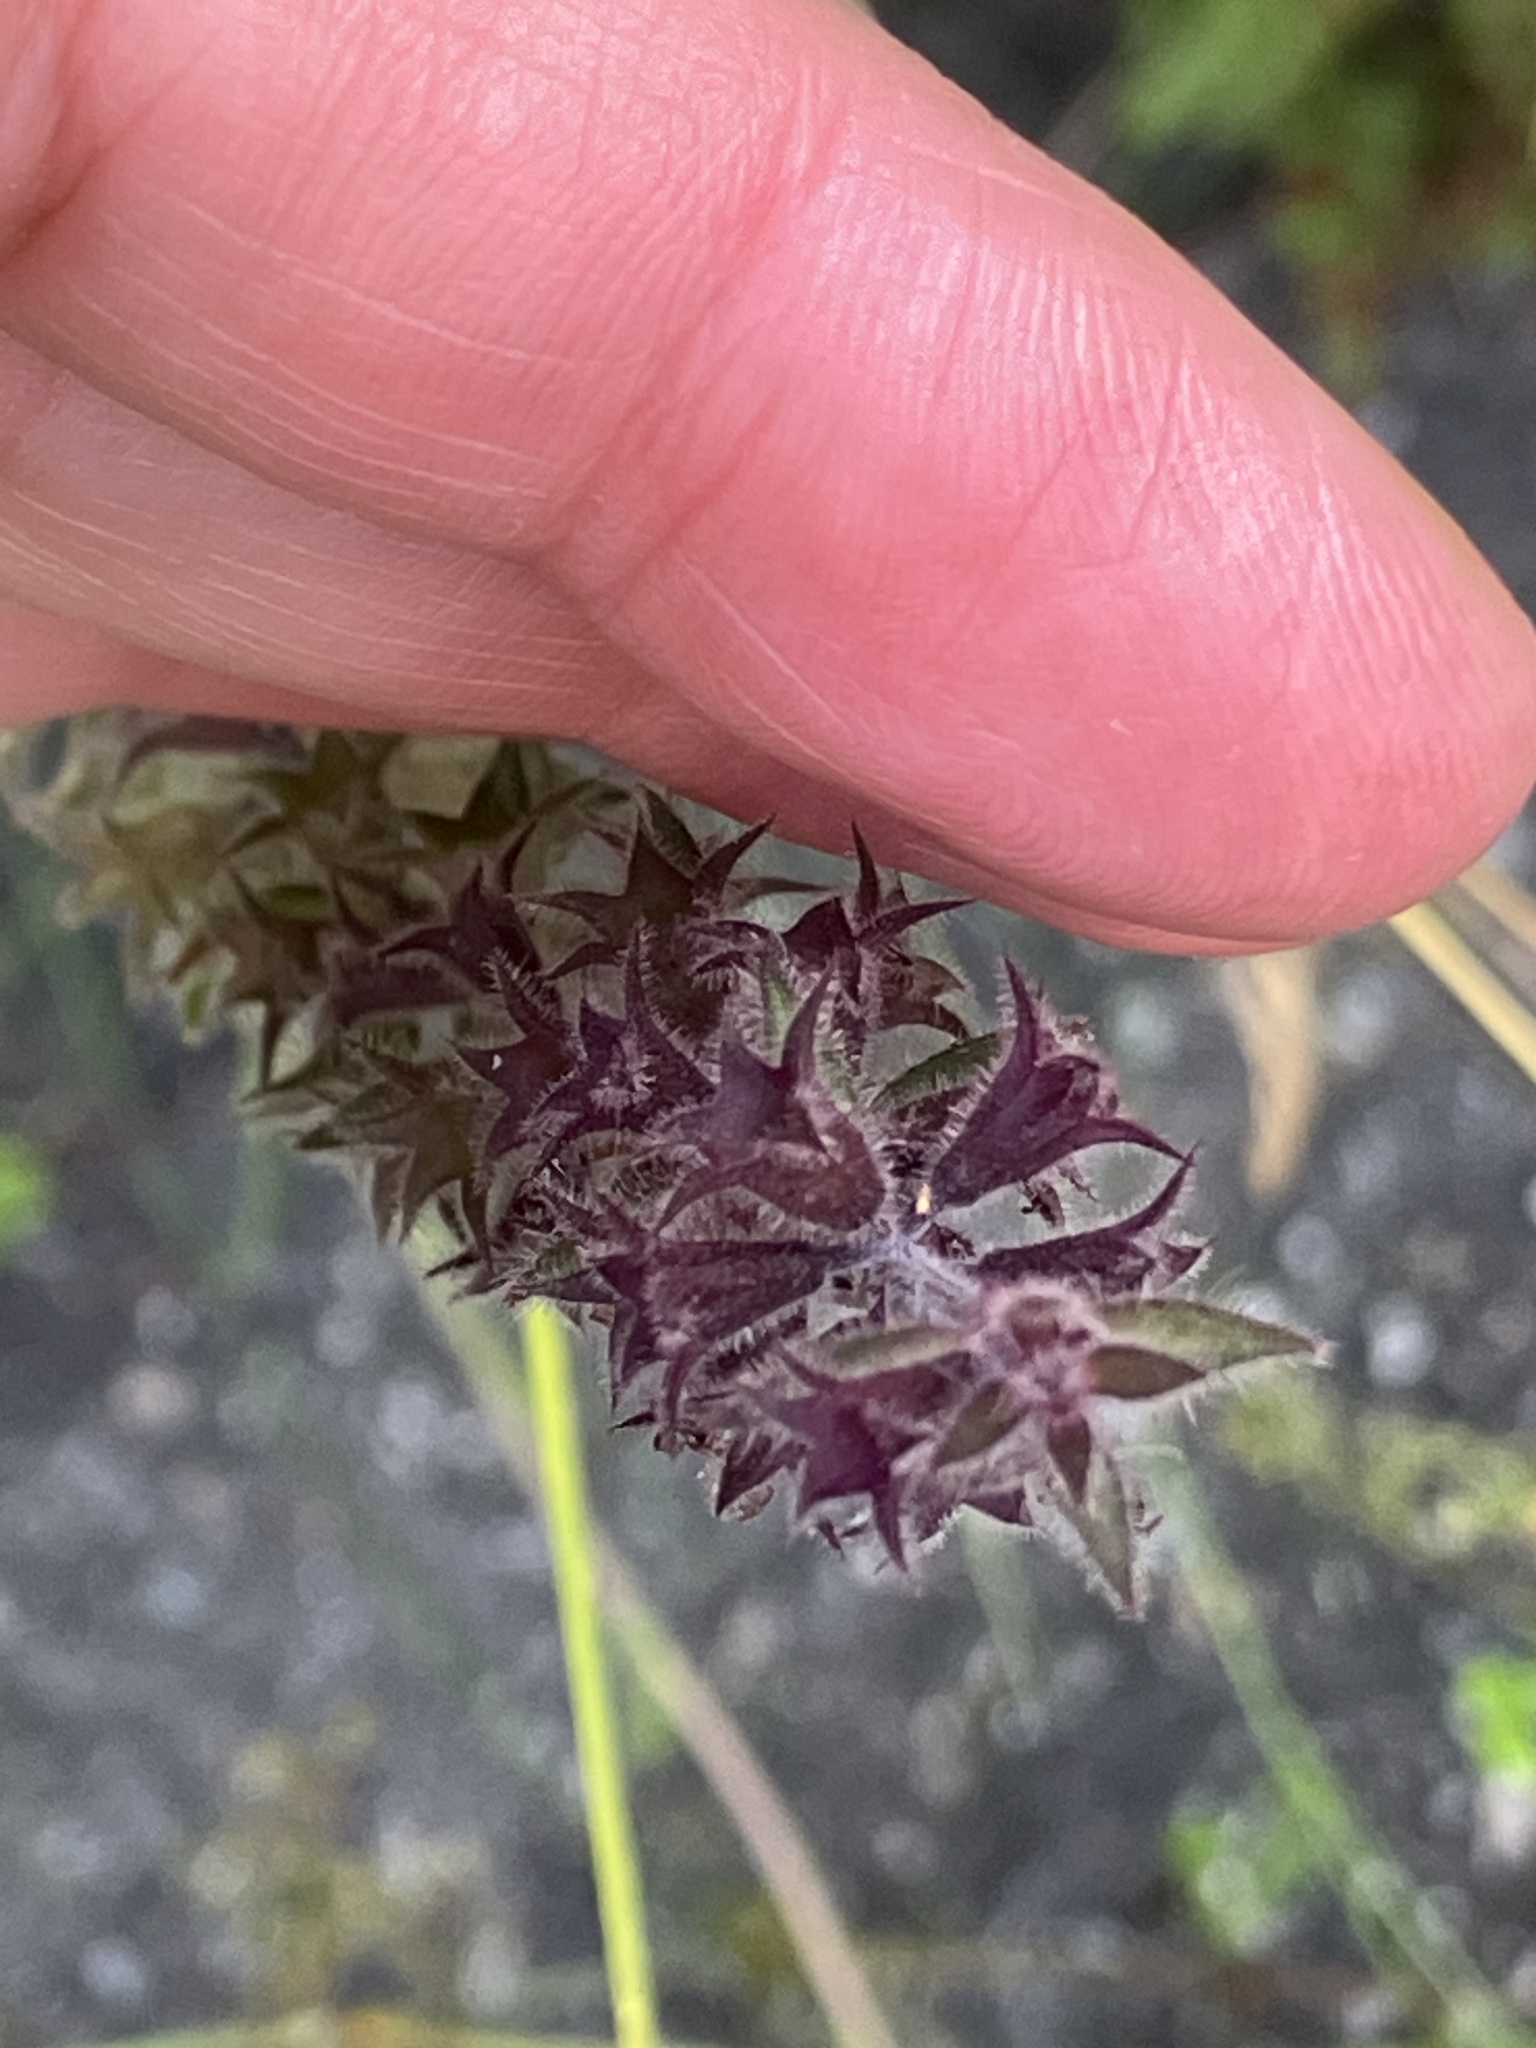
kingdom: Plantae
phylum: Tracheophyta
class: Magnoliopsida
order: Lamiales
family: Lamiaceae
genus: Stachys
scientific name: Stachys sylvatica
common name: Hedge woundwort
